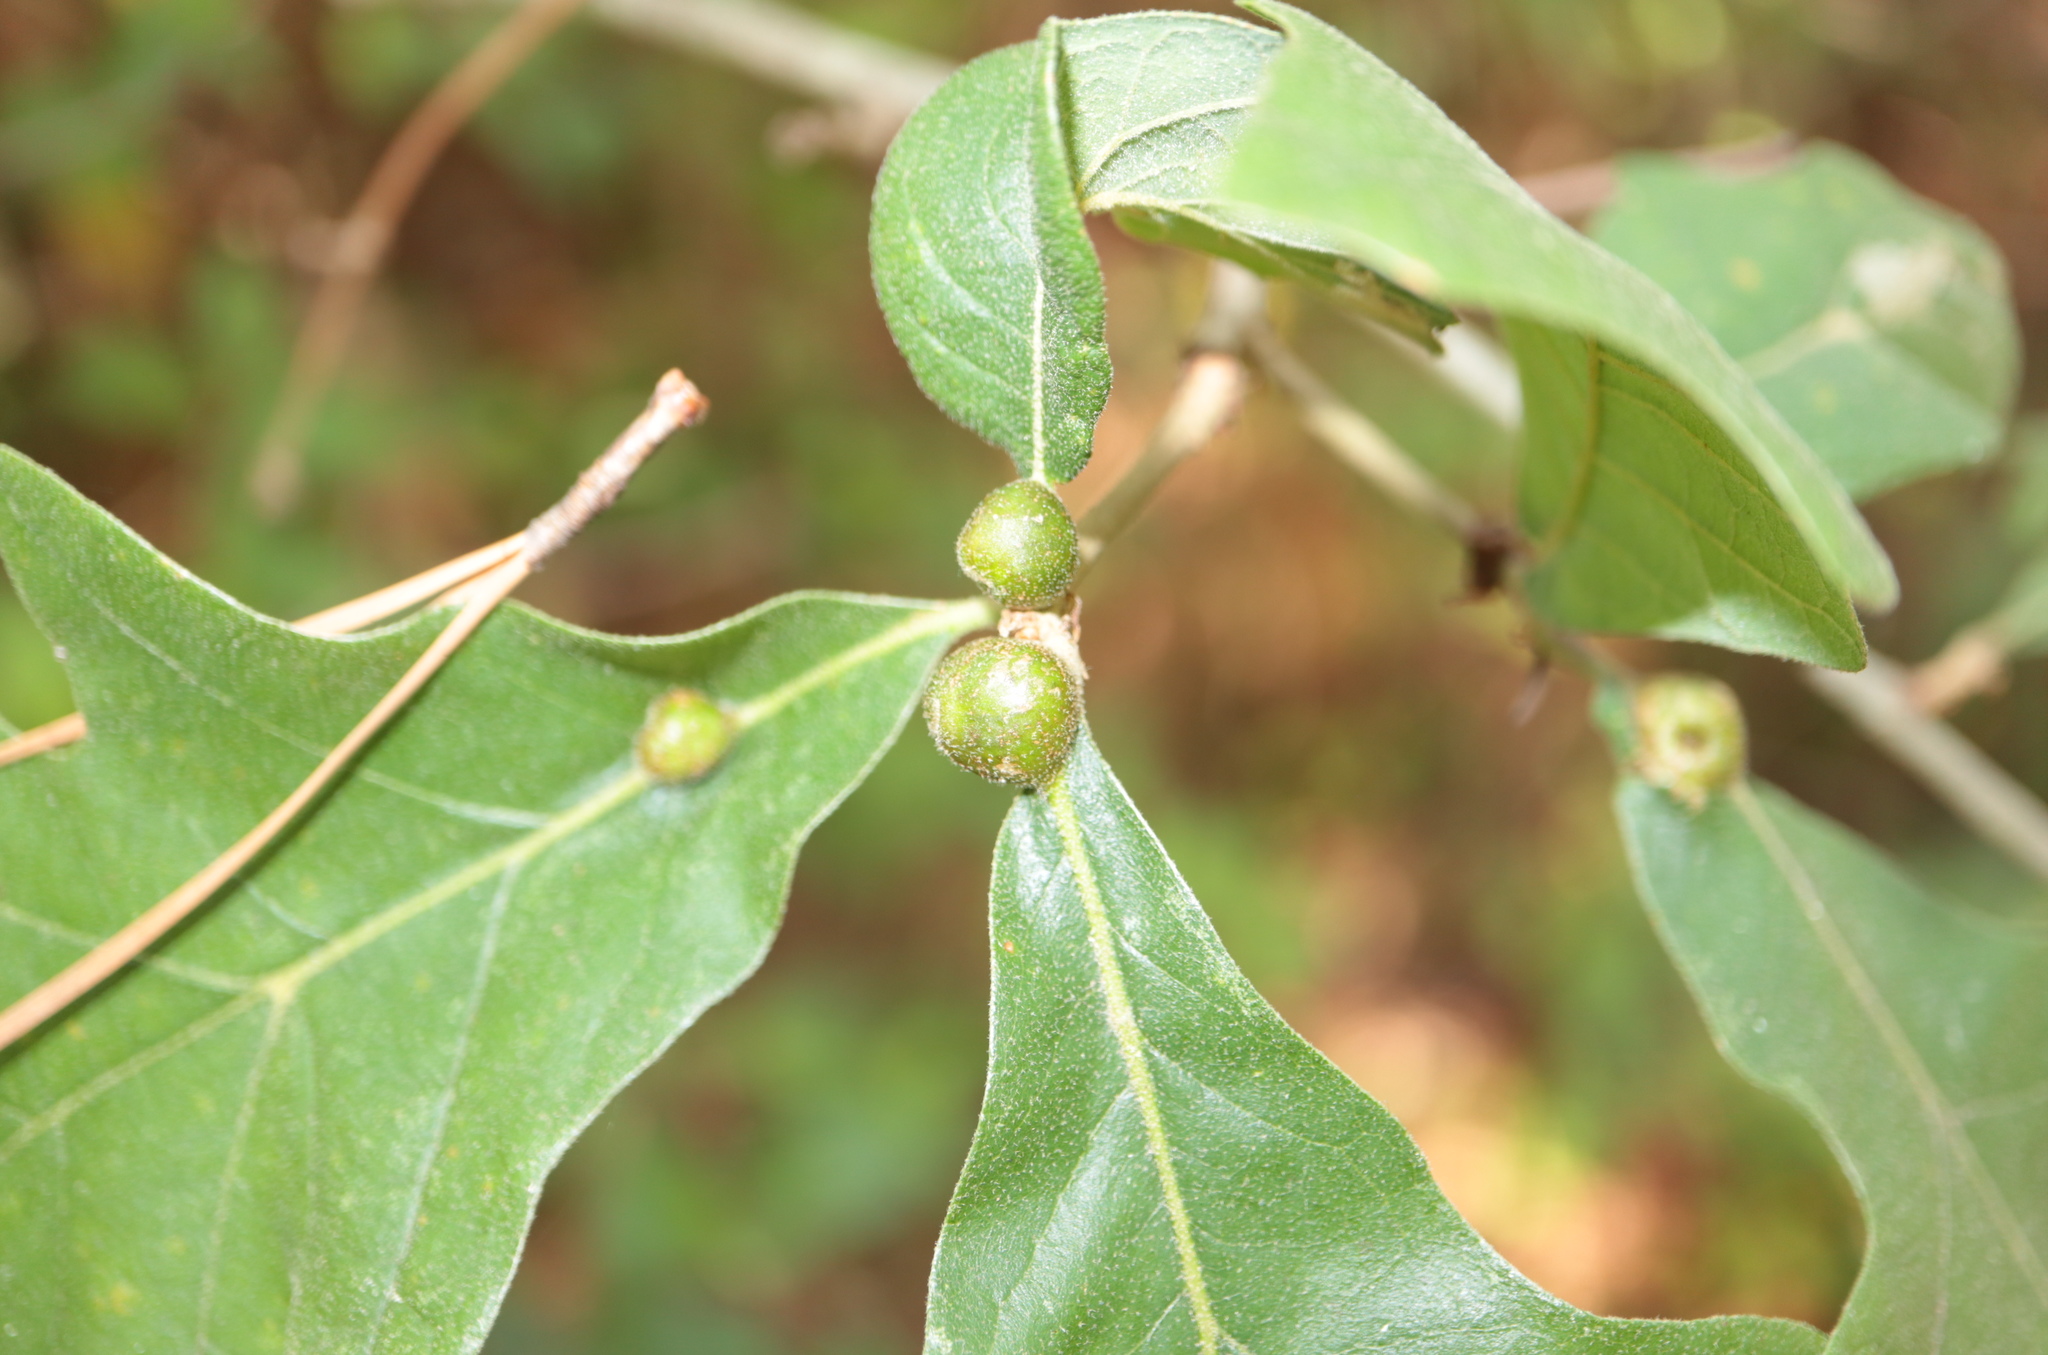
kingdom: Animalia
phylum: Arthropoda
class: Insecta
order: Hymenoptera
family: Cynipidae
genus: Andricus
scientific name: Andricus
